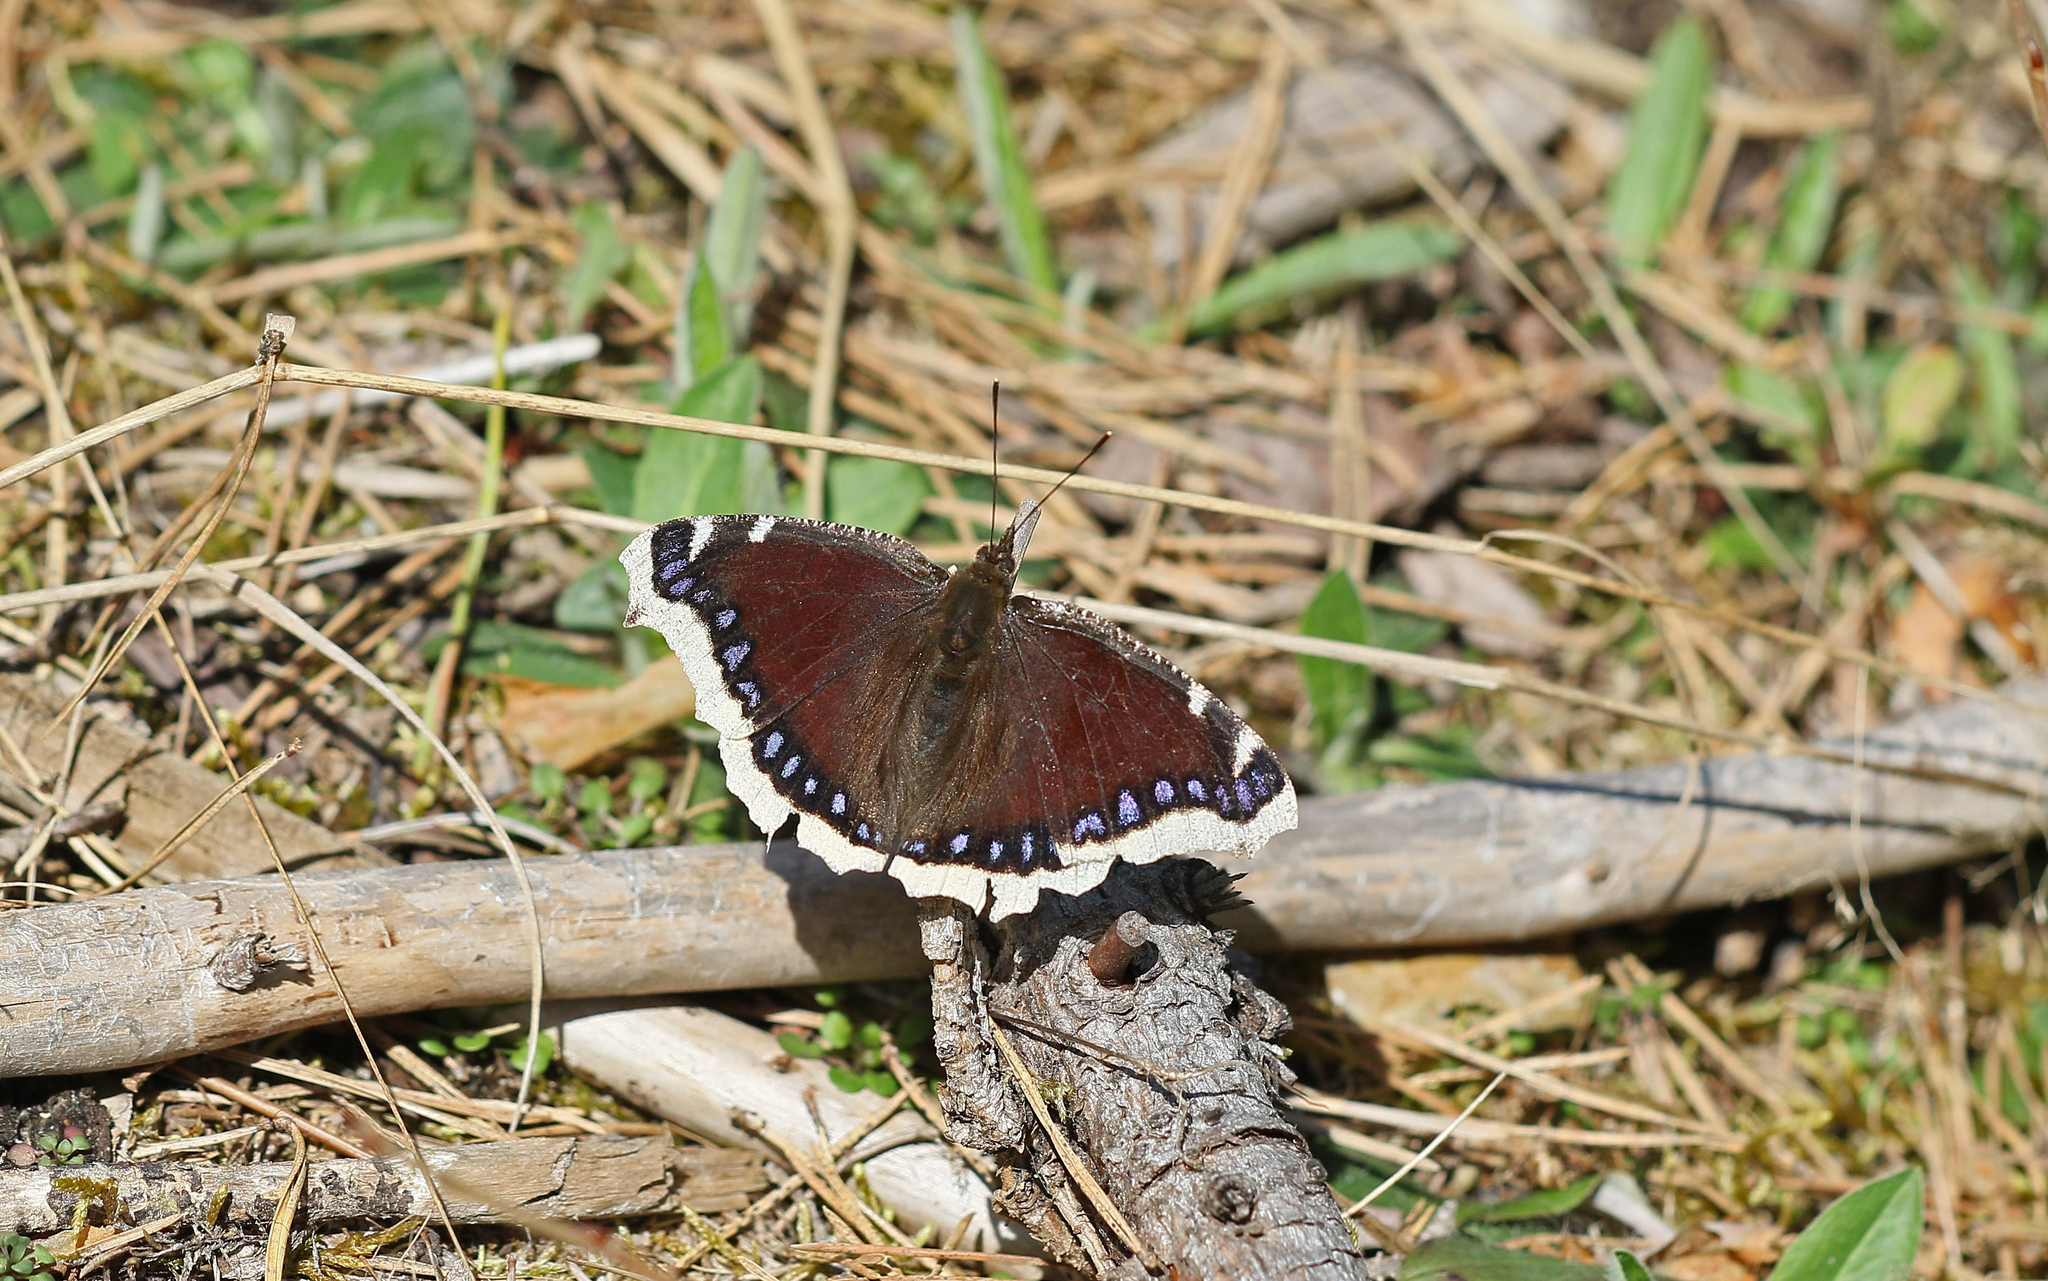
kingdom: Animalia
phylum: Arthropoda
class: Insecta
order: Lepidoptera
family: Nymphalidae
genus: Nymphalis
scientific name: Nymphalis antiopa
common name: Camberwell beauty
